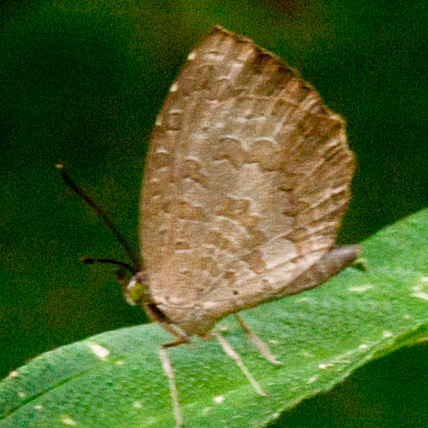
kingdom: Animalia
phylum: Arthropoda
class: Insecta
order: Lepidoptera
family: Lycaenidae
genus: Miletus
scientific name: Miletus chinensis
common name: Common brownie
